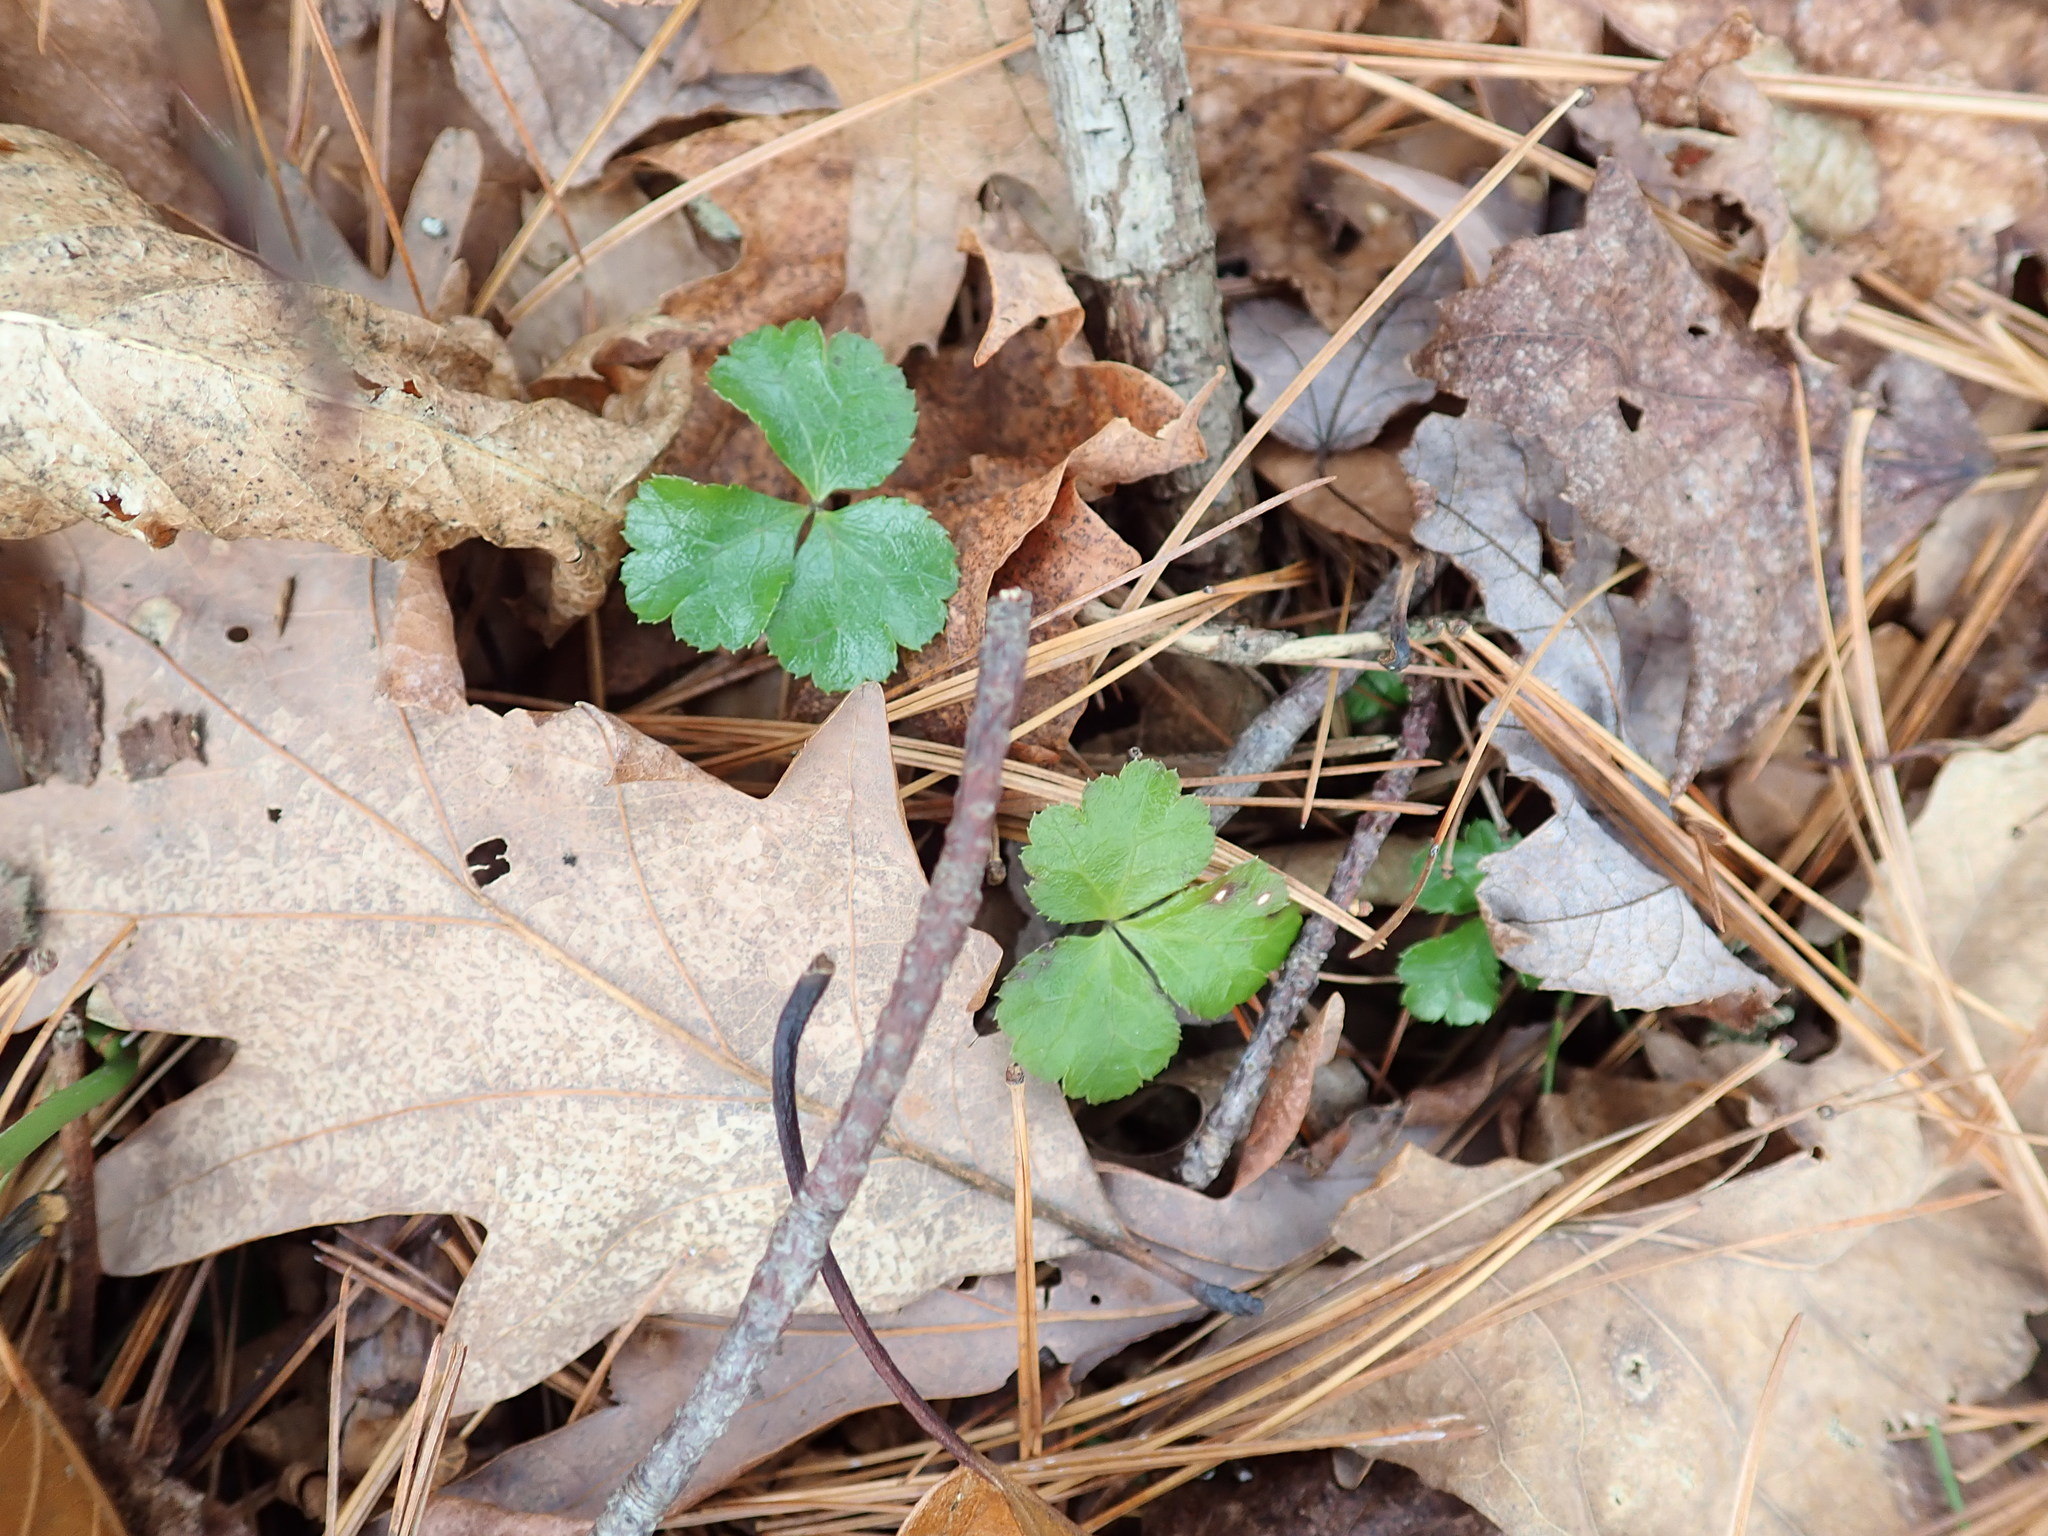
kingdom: Plantae
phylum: Tracheophyta
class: Magnoliopsida
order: Ranunculales
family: Ranunculaceae
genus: Coptis
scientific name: Coptis trifolia
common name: Canker-root
